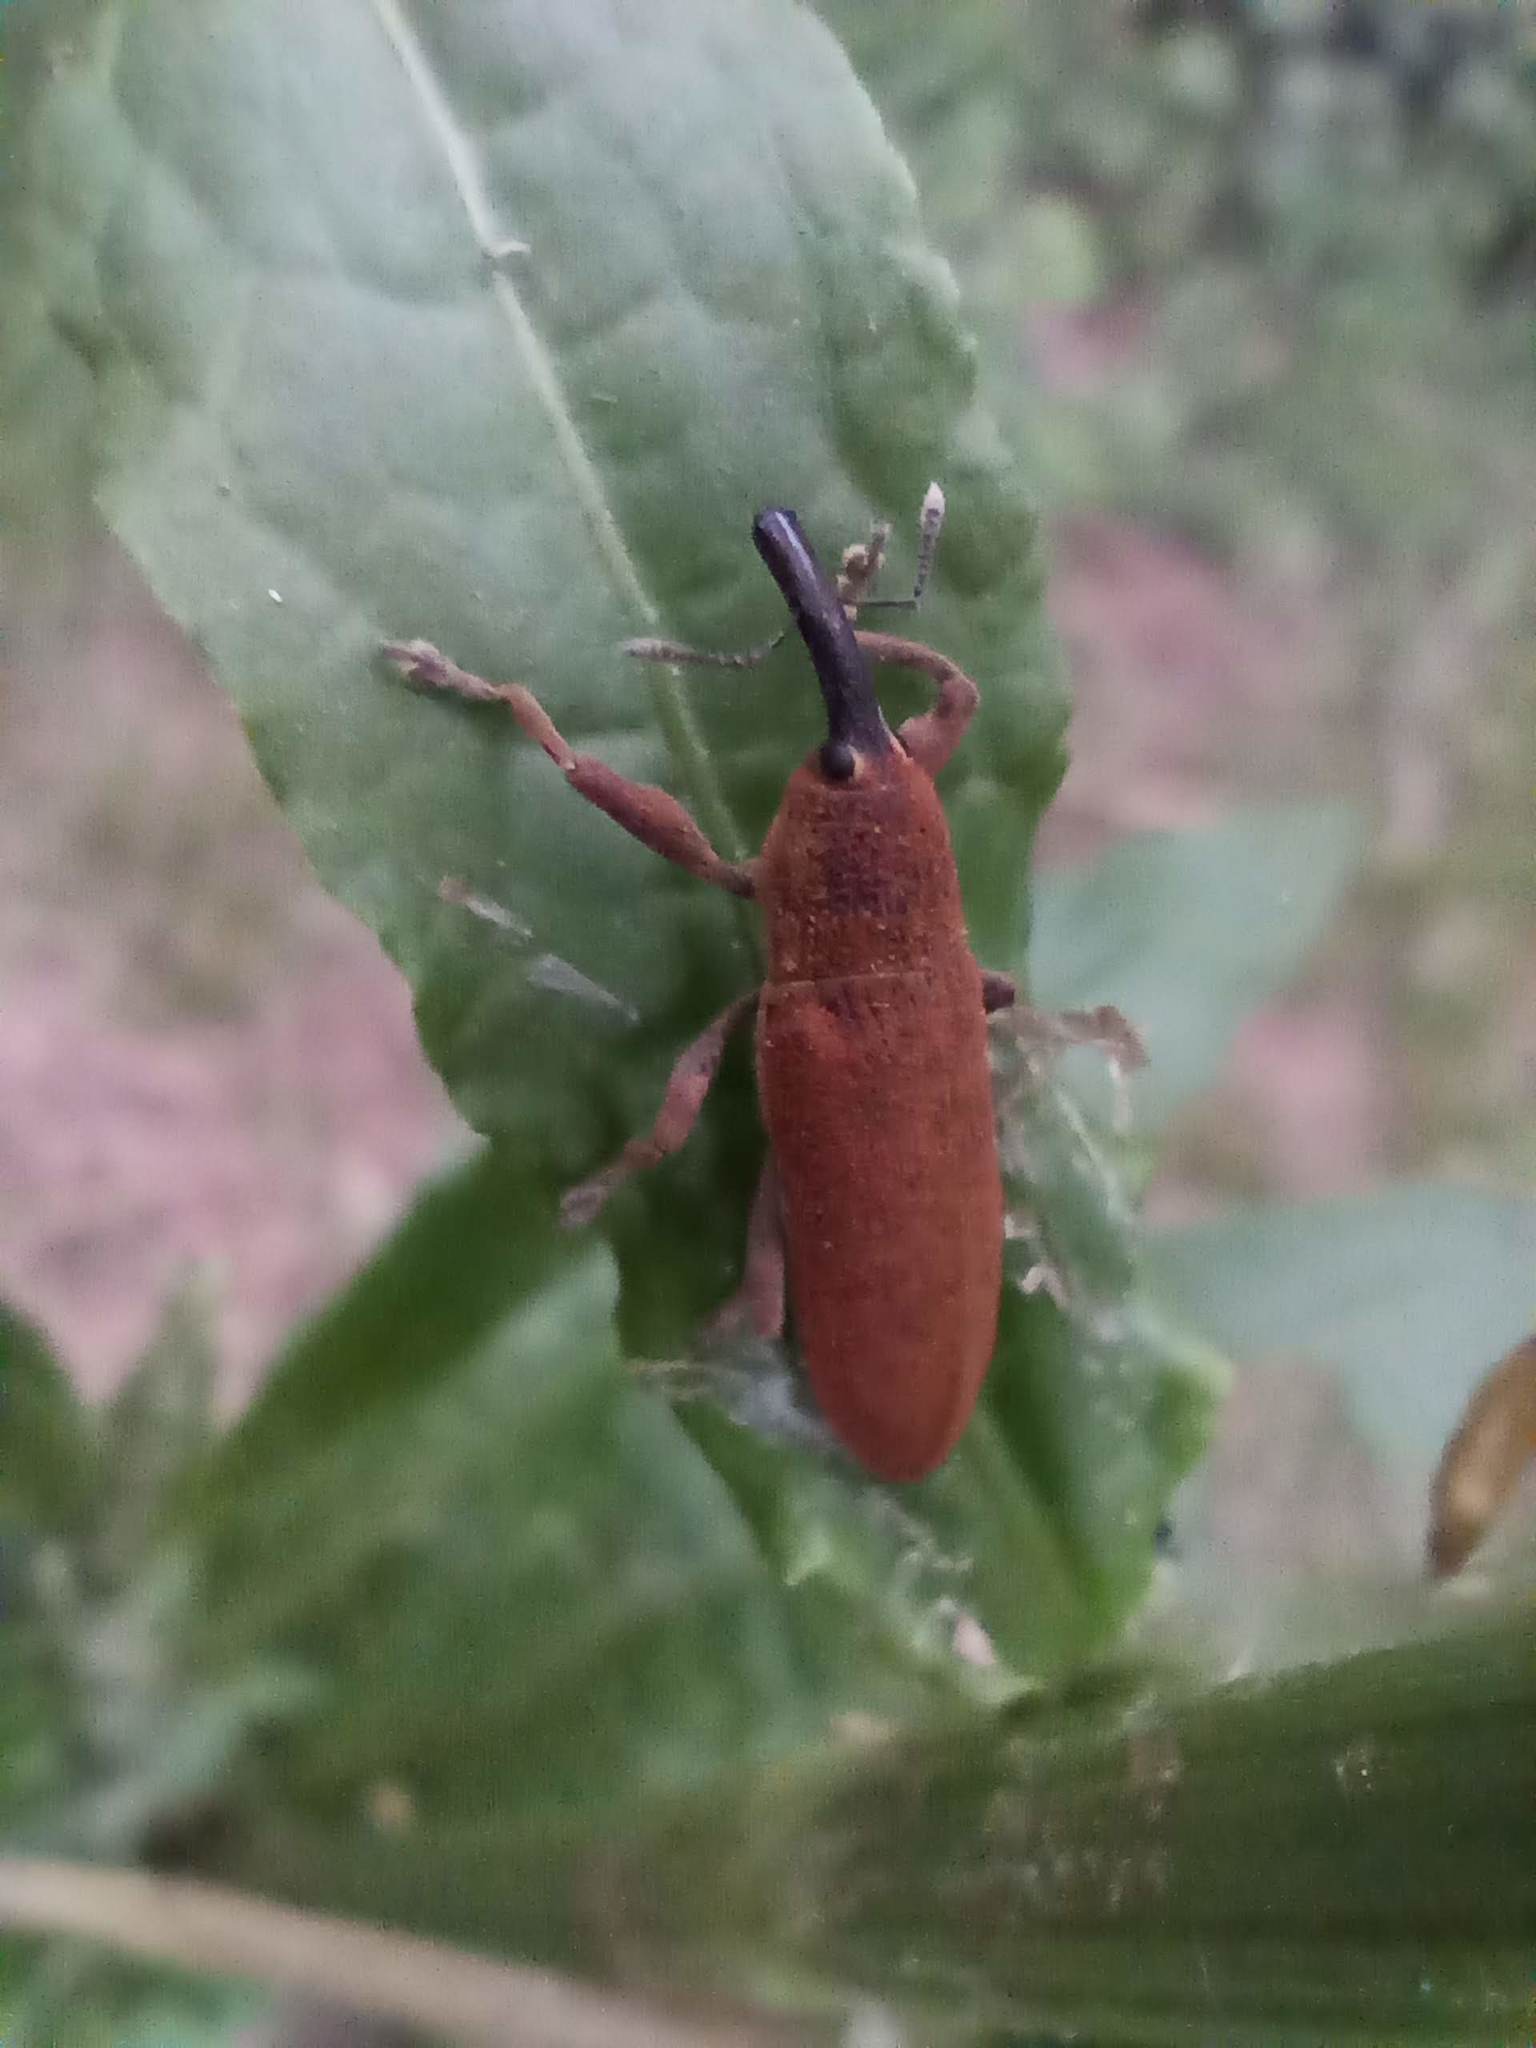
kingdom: Animalia
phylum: Arthropoda
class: Insecta
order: Coleoptera
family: Curculionidae
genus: Lixus
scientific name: Lixus linearis
